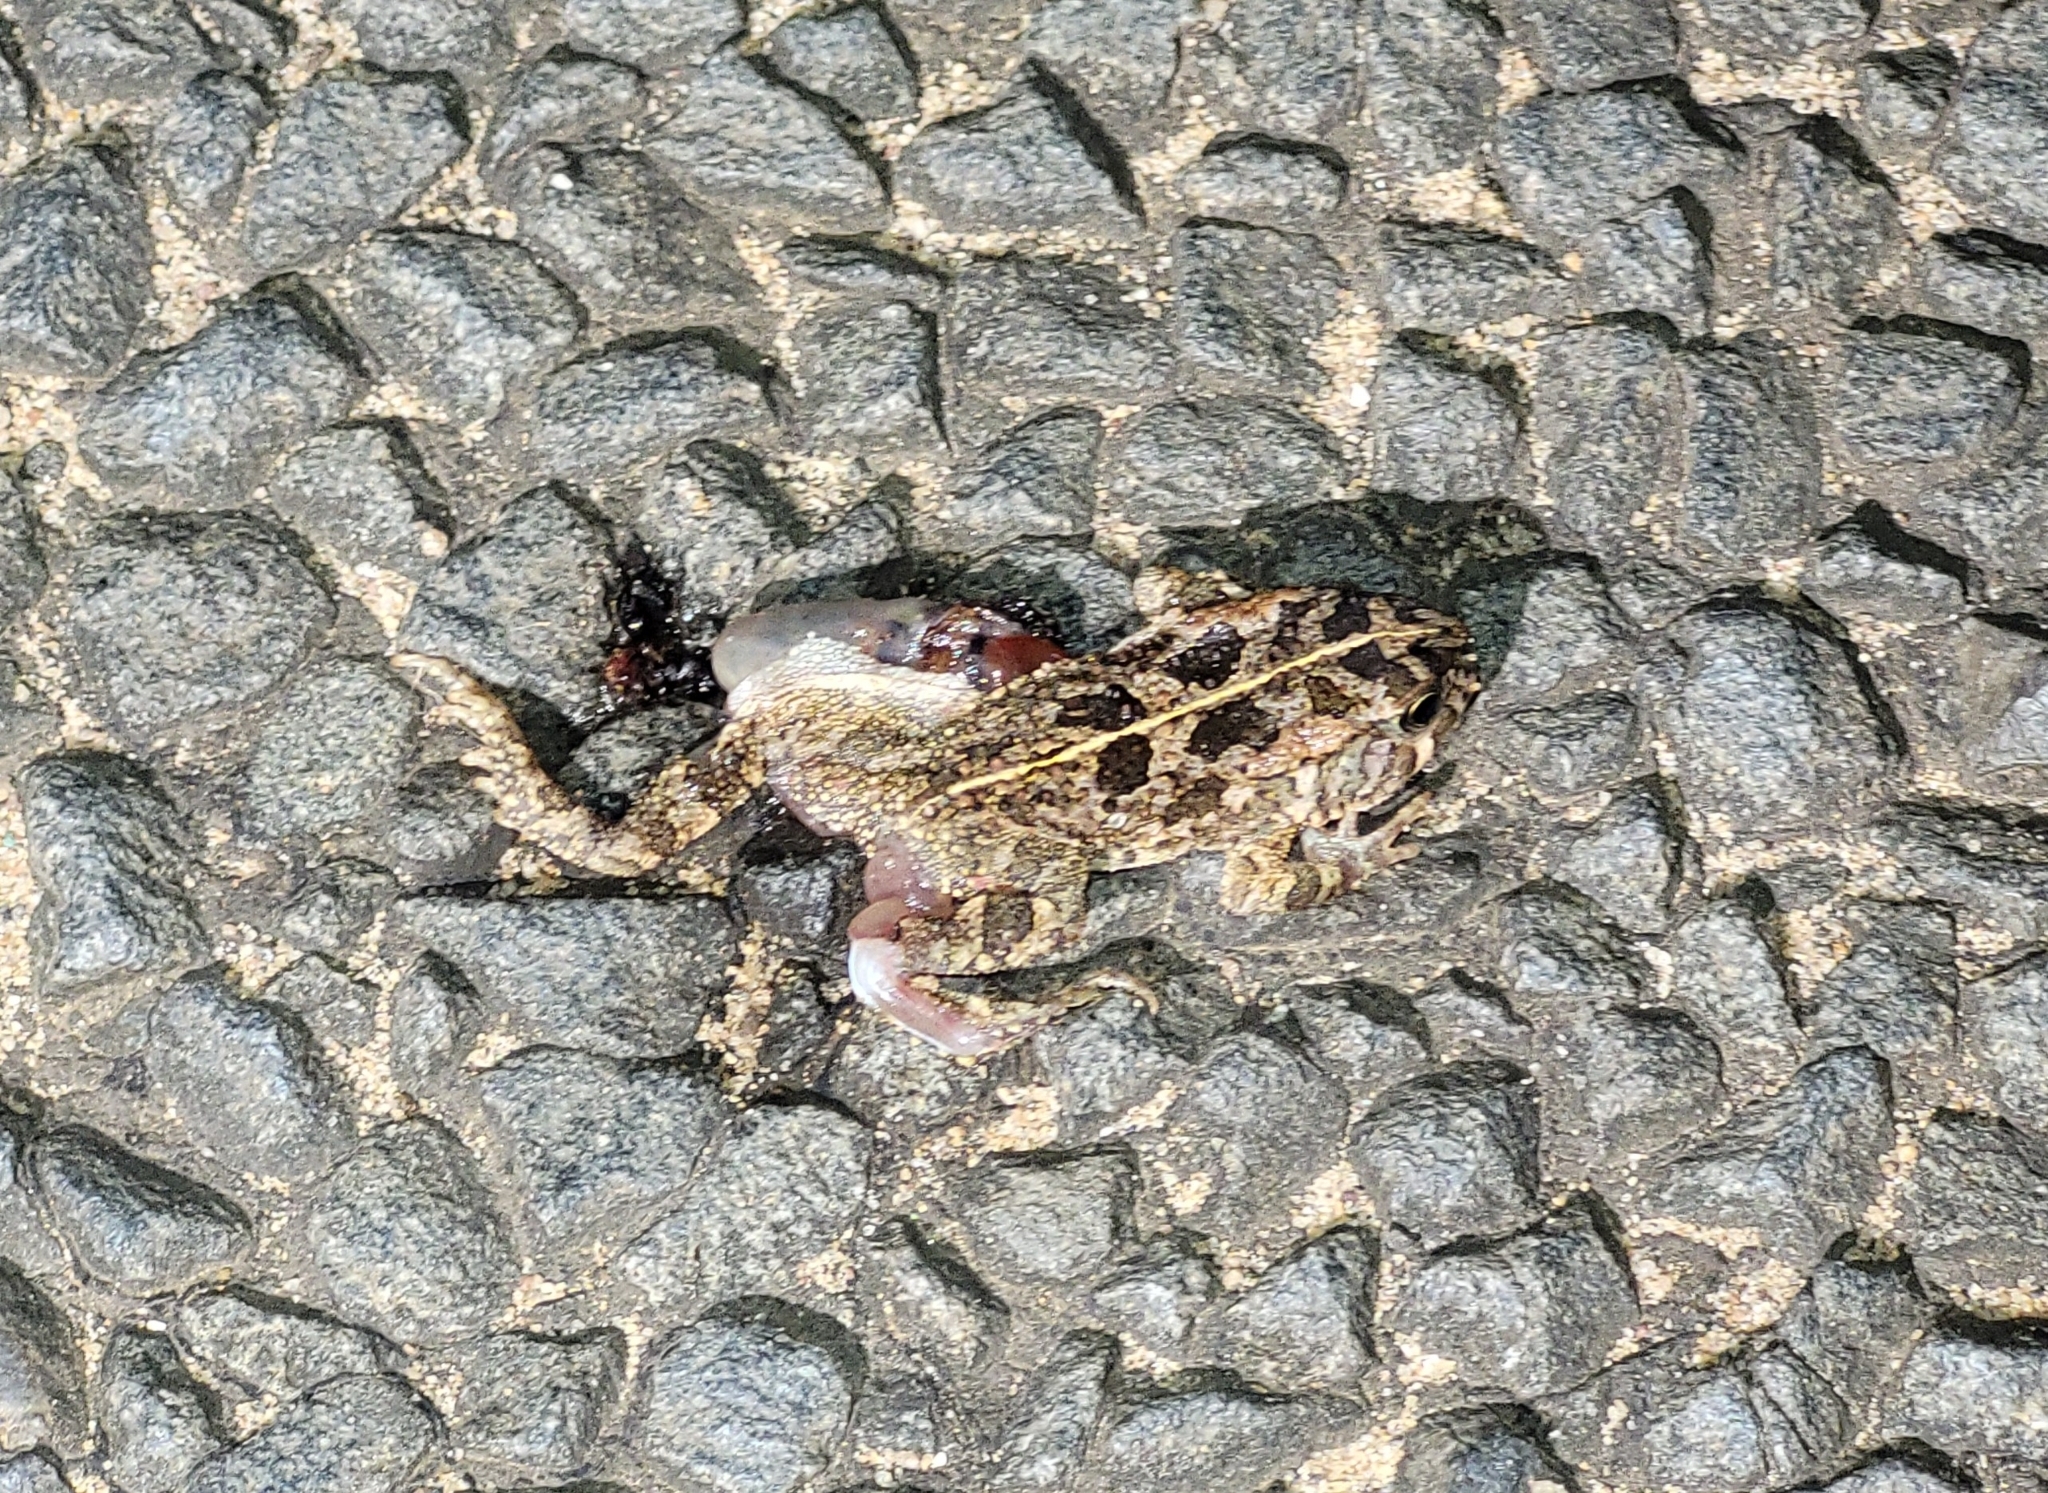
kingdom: Animalia
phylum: Chordata
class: Amphibia
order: Anura
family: Bufonidae
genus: Sclerophrys
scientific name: Sclerophrys gutturalis
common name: African common toad
